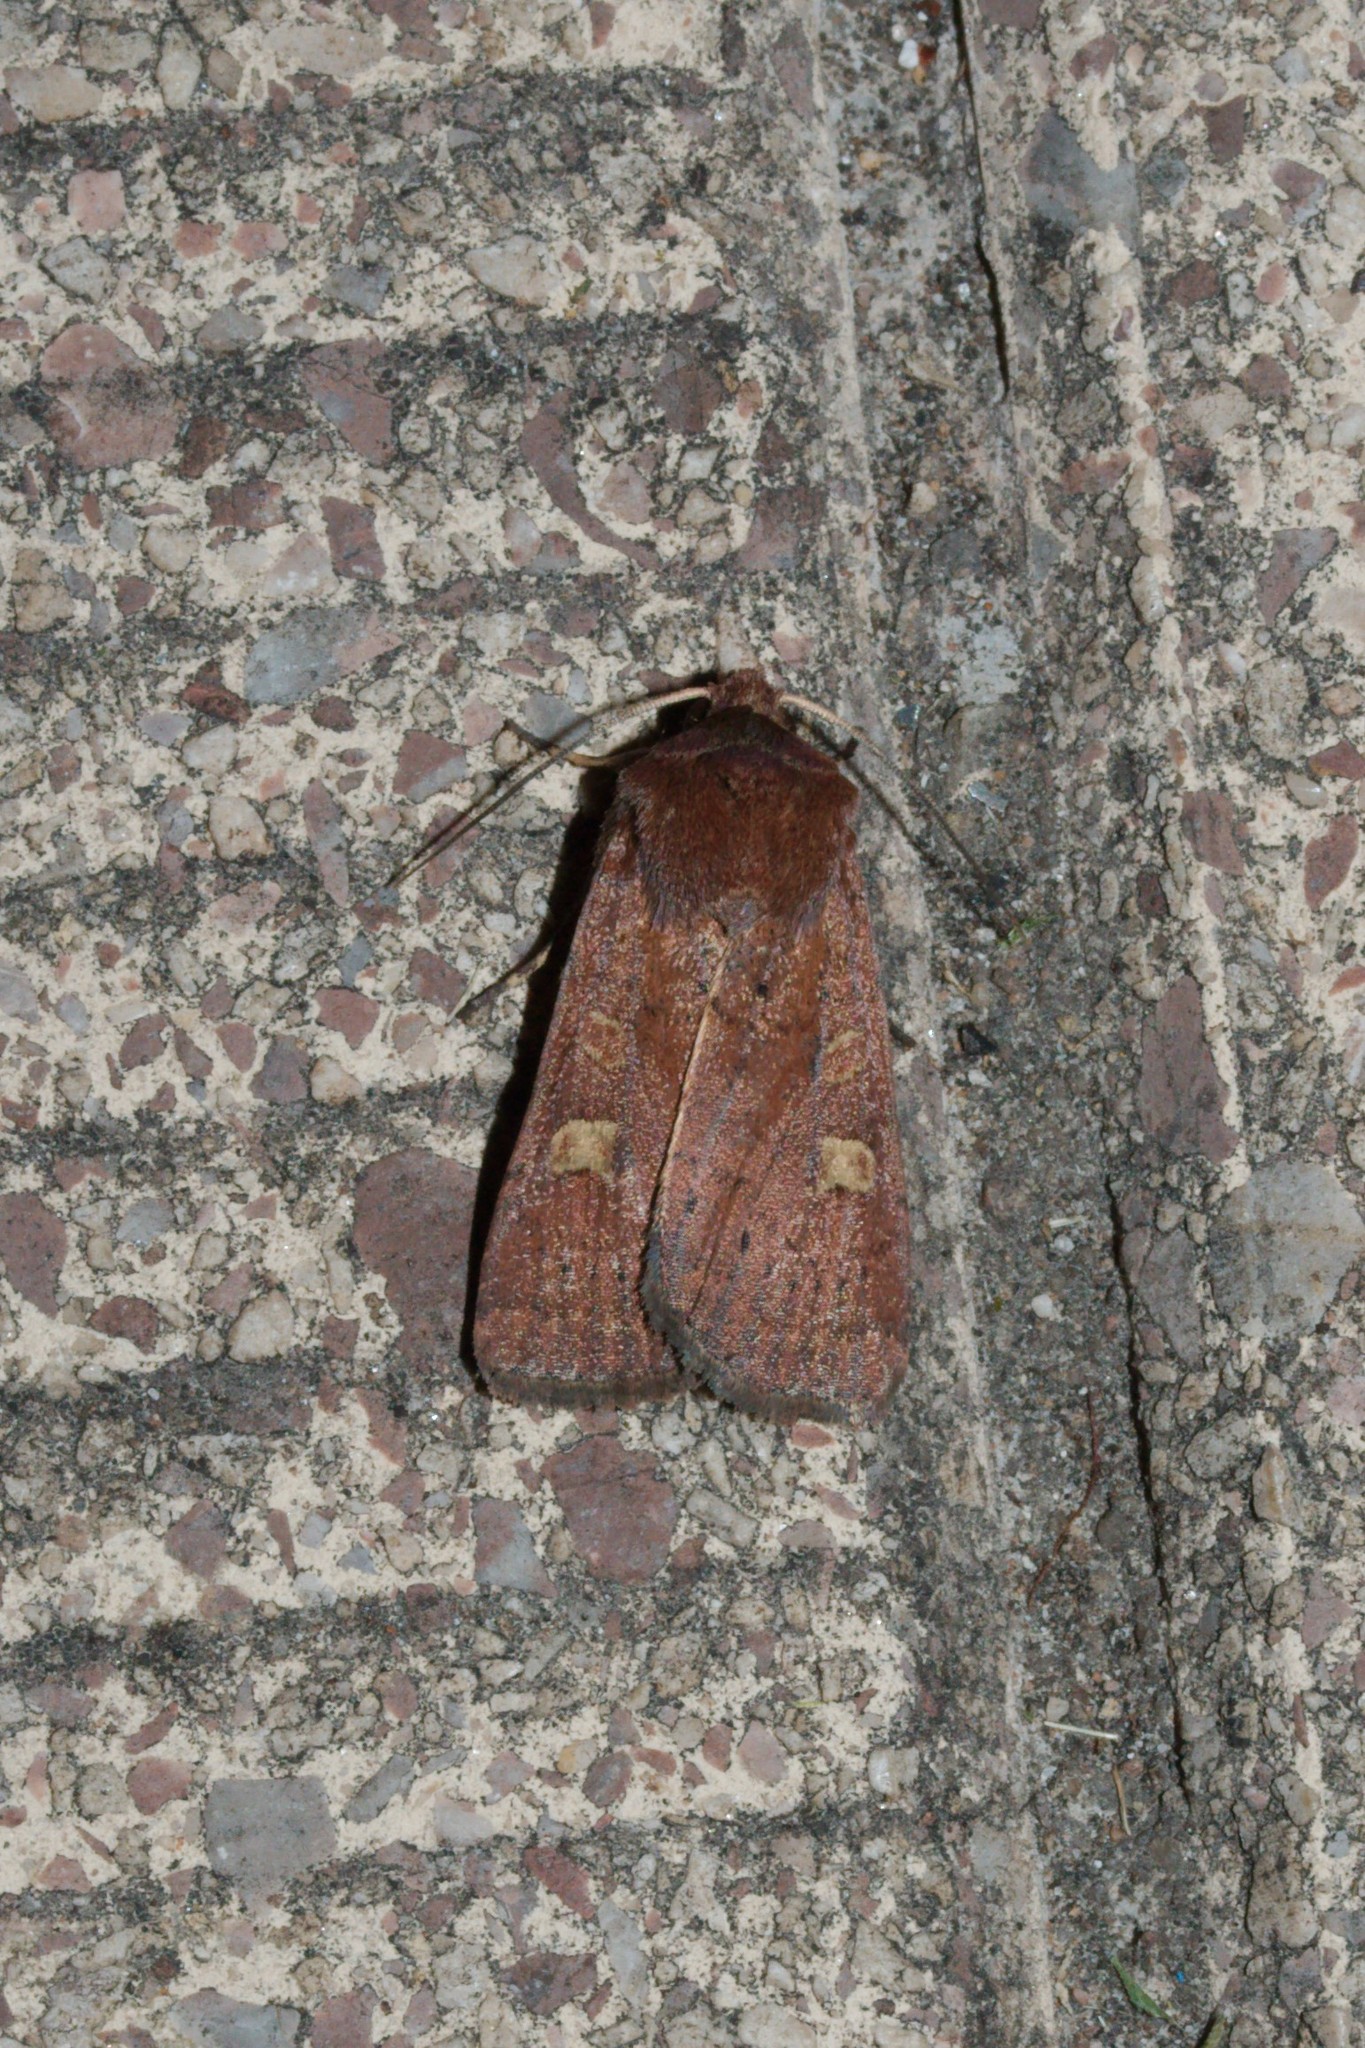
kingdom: Animalia
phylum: Arthropoda
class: Insecta
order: Lepidoptera
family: Noctuidae
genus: Xestia
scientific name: Xestia xanthographa
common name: Square-spot rustic
